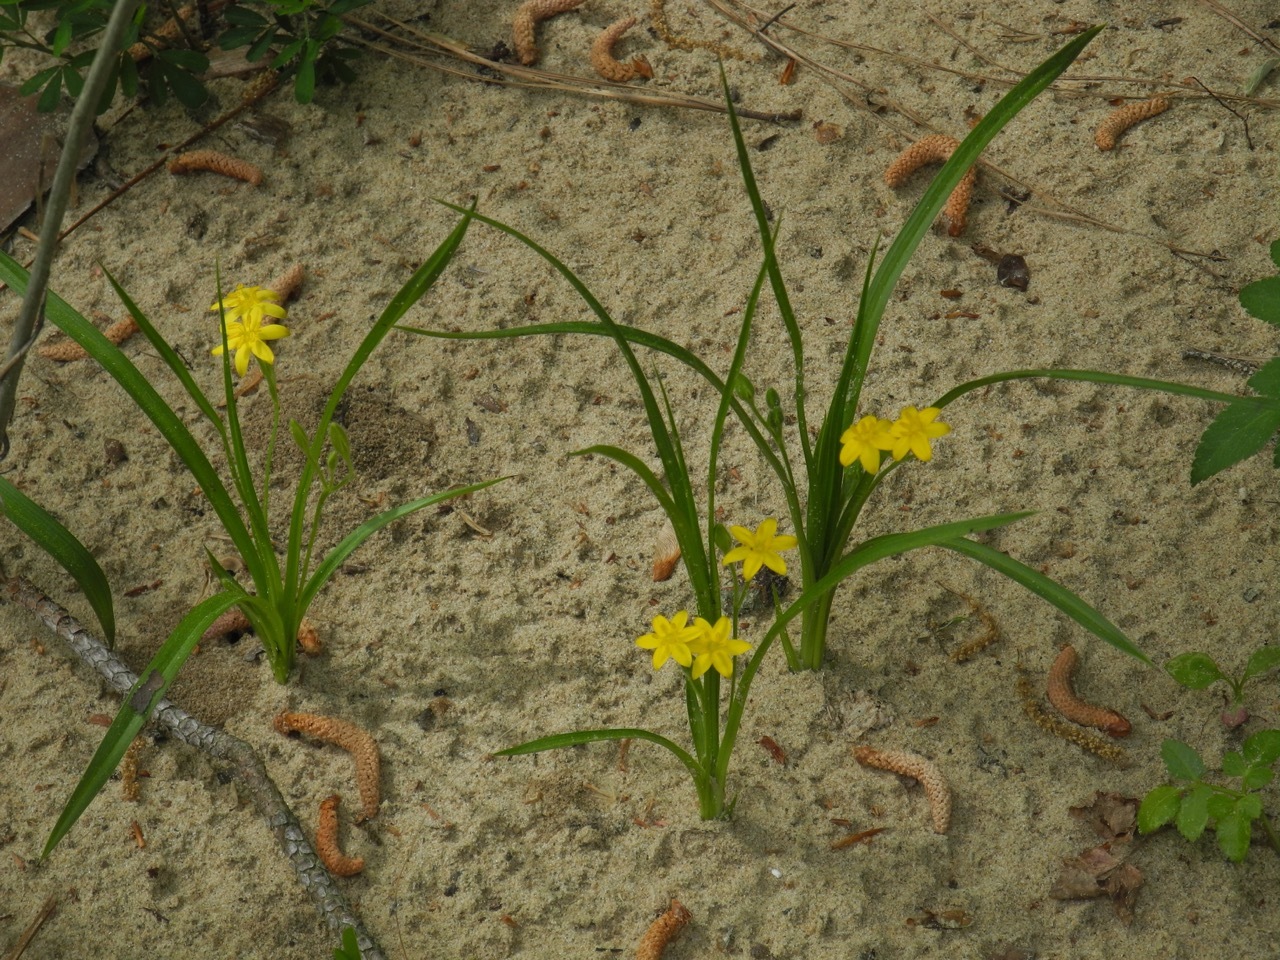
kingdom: Plantae
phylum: Tracheophyta
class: Liliopsida
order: Asparagales
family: Hypoxidaceae
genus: Hypoxis
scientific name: Hypoxis hirsuta
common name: Common goldstar
